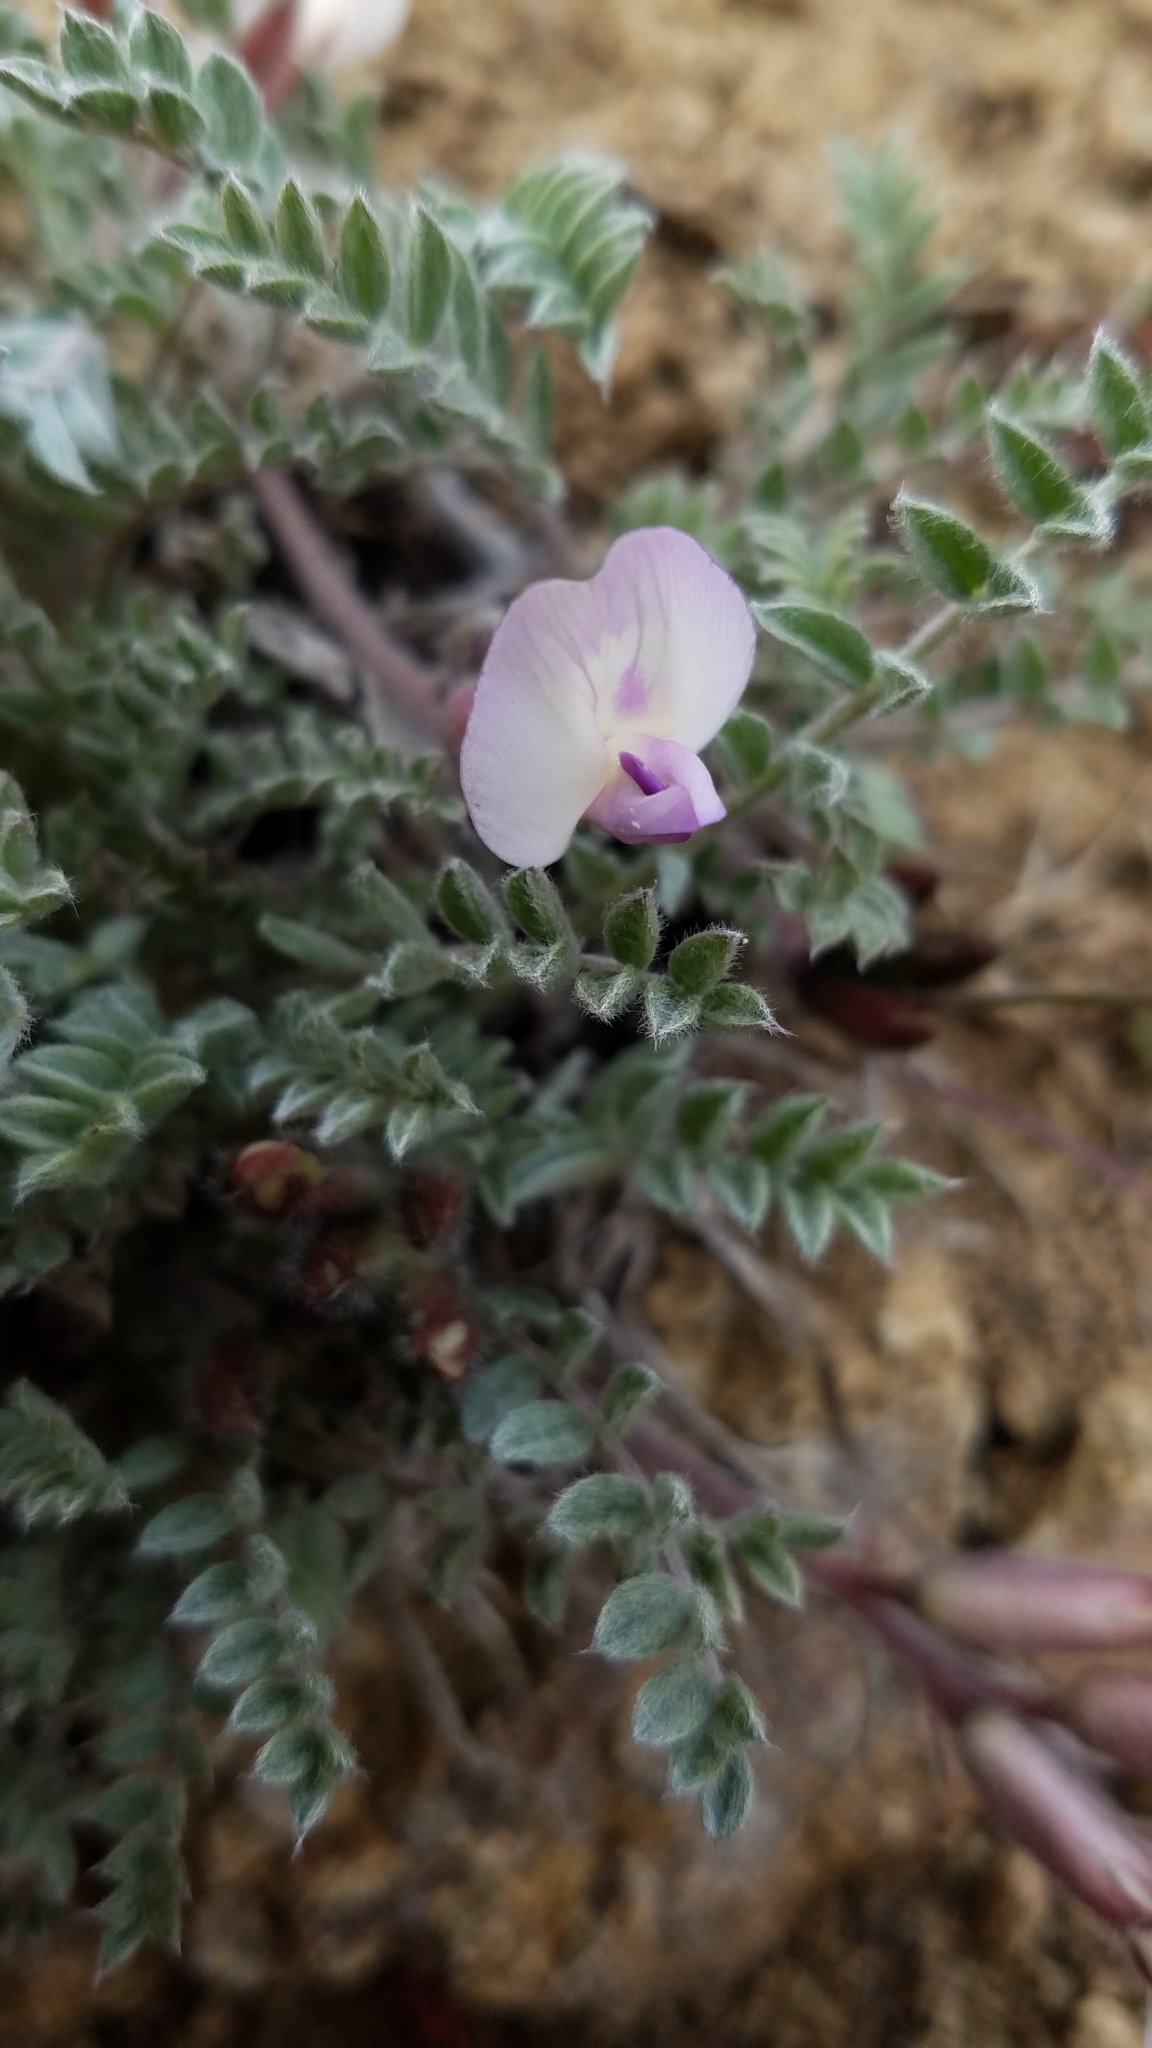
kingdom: Plantae
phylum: Tracheophyta
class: Magnoliopsida
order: Fabales
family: Fabaceae
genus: Astragalus
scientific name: Astragalus purshii
